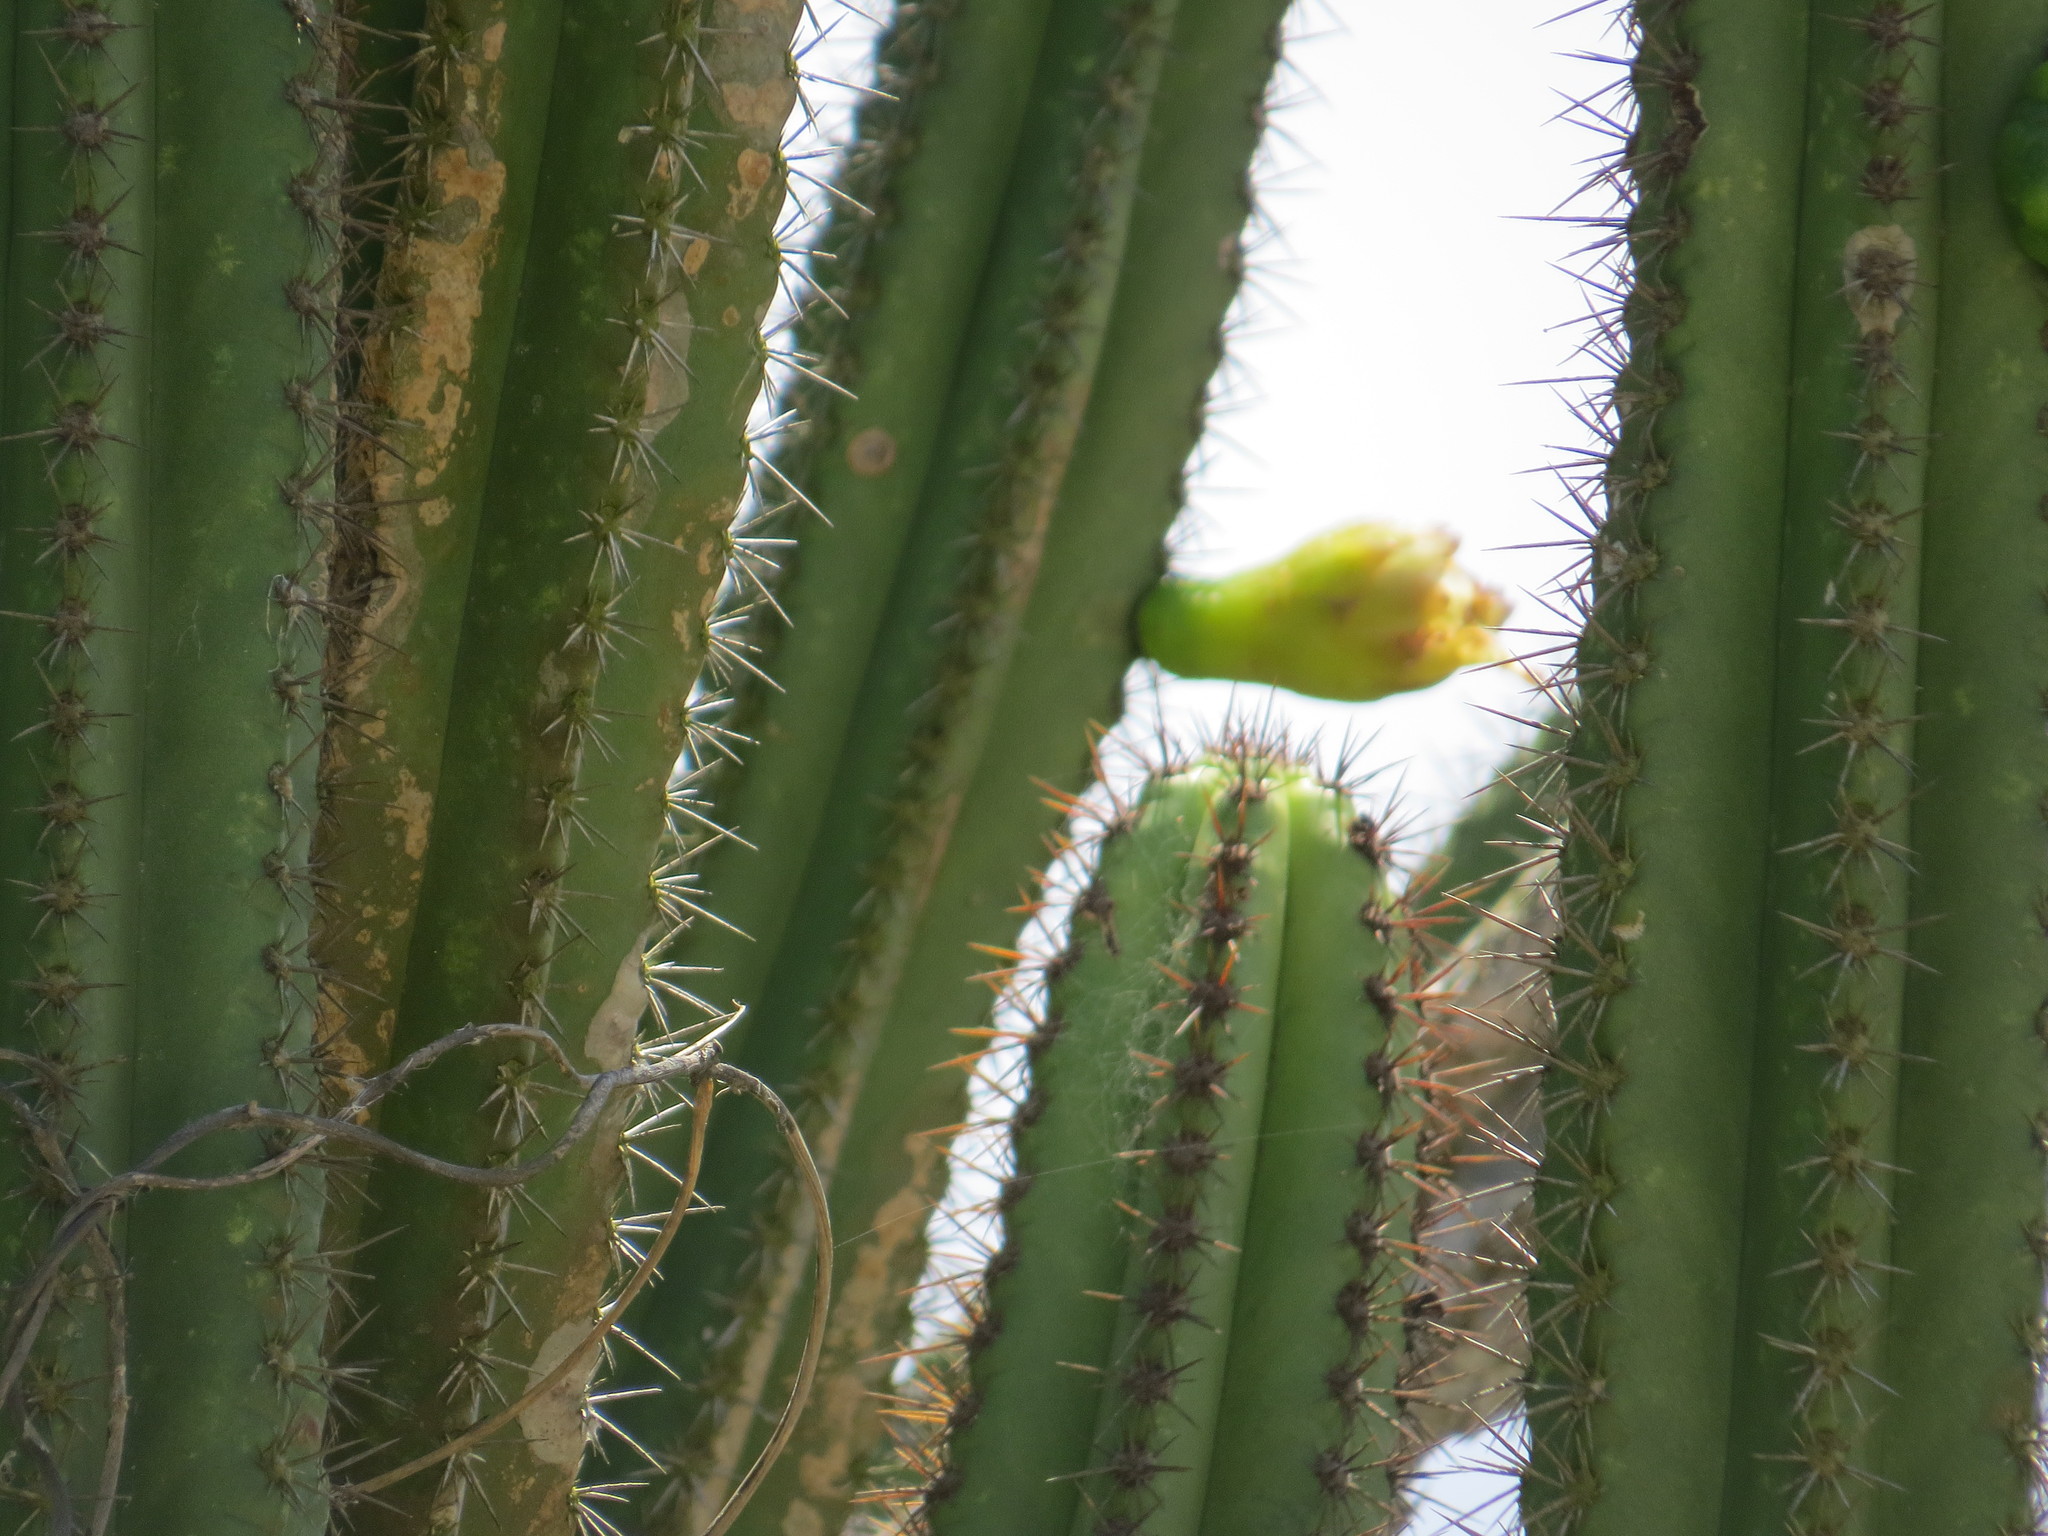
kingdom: Plantae
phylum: Tracheophyta
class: Magnoliopsida
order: Caryophyllales
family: Cactaceae
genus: Pilosocereus
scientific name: Pilosocereus arrabidae
